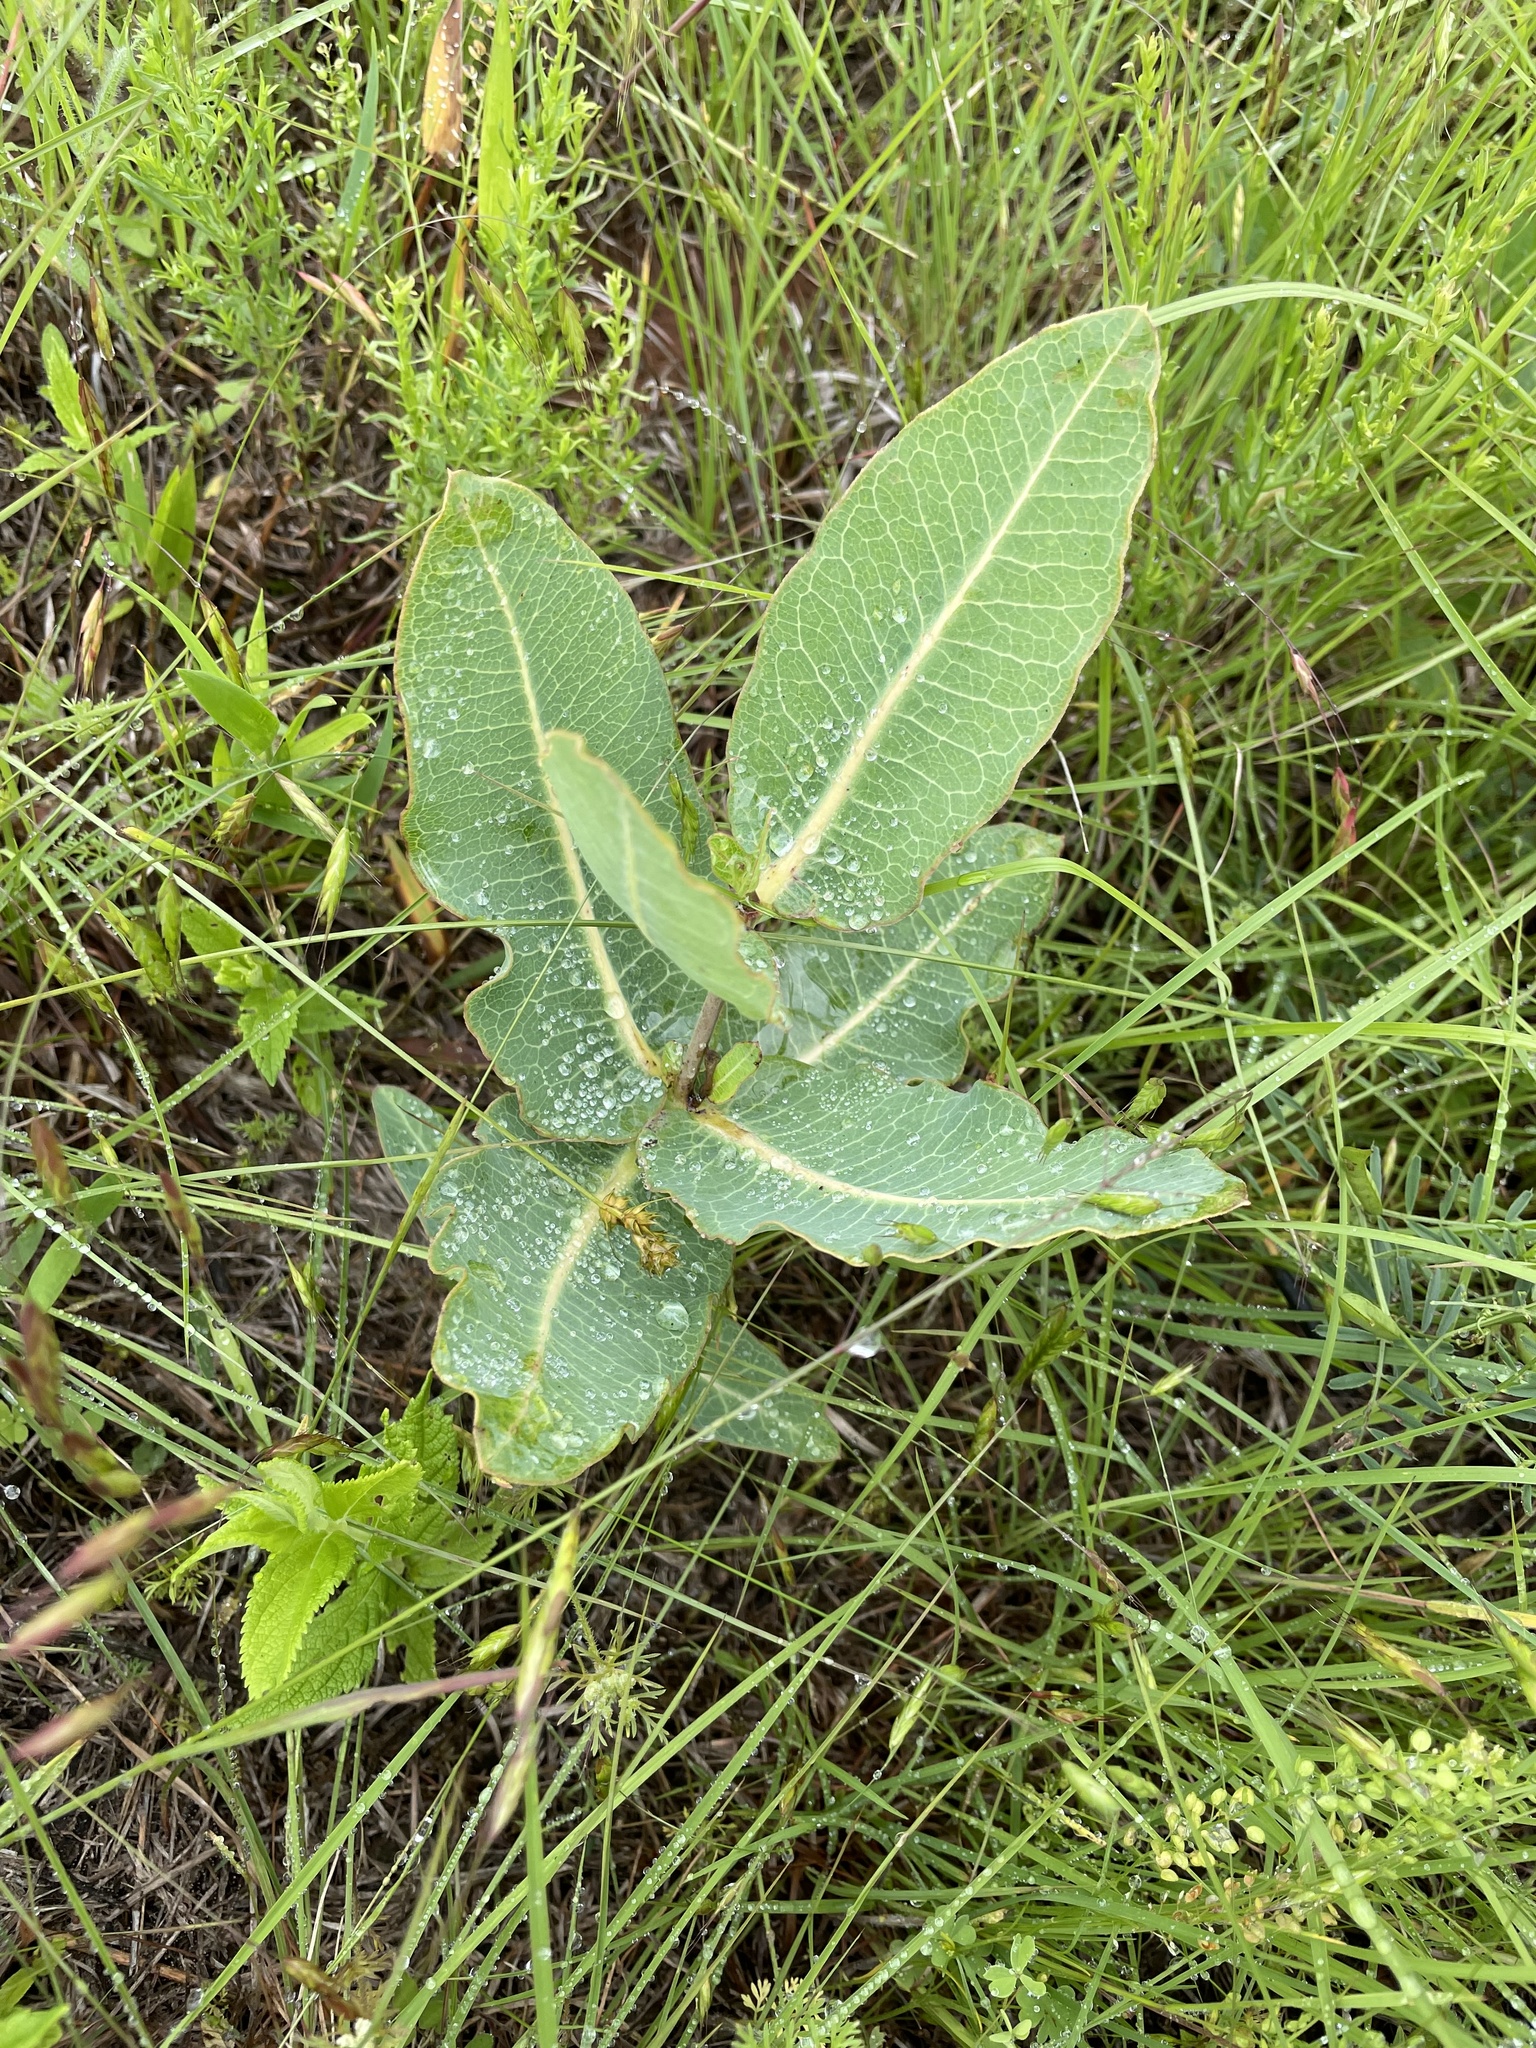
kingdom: Plantae
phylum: Tracheophyta
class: Magnoliopsida
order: Gentianales
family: Apocynaceae
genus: Asclepias
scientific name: Asclepias amplexicaulis
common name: Blunt-leaf milkweed
